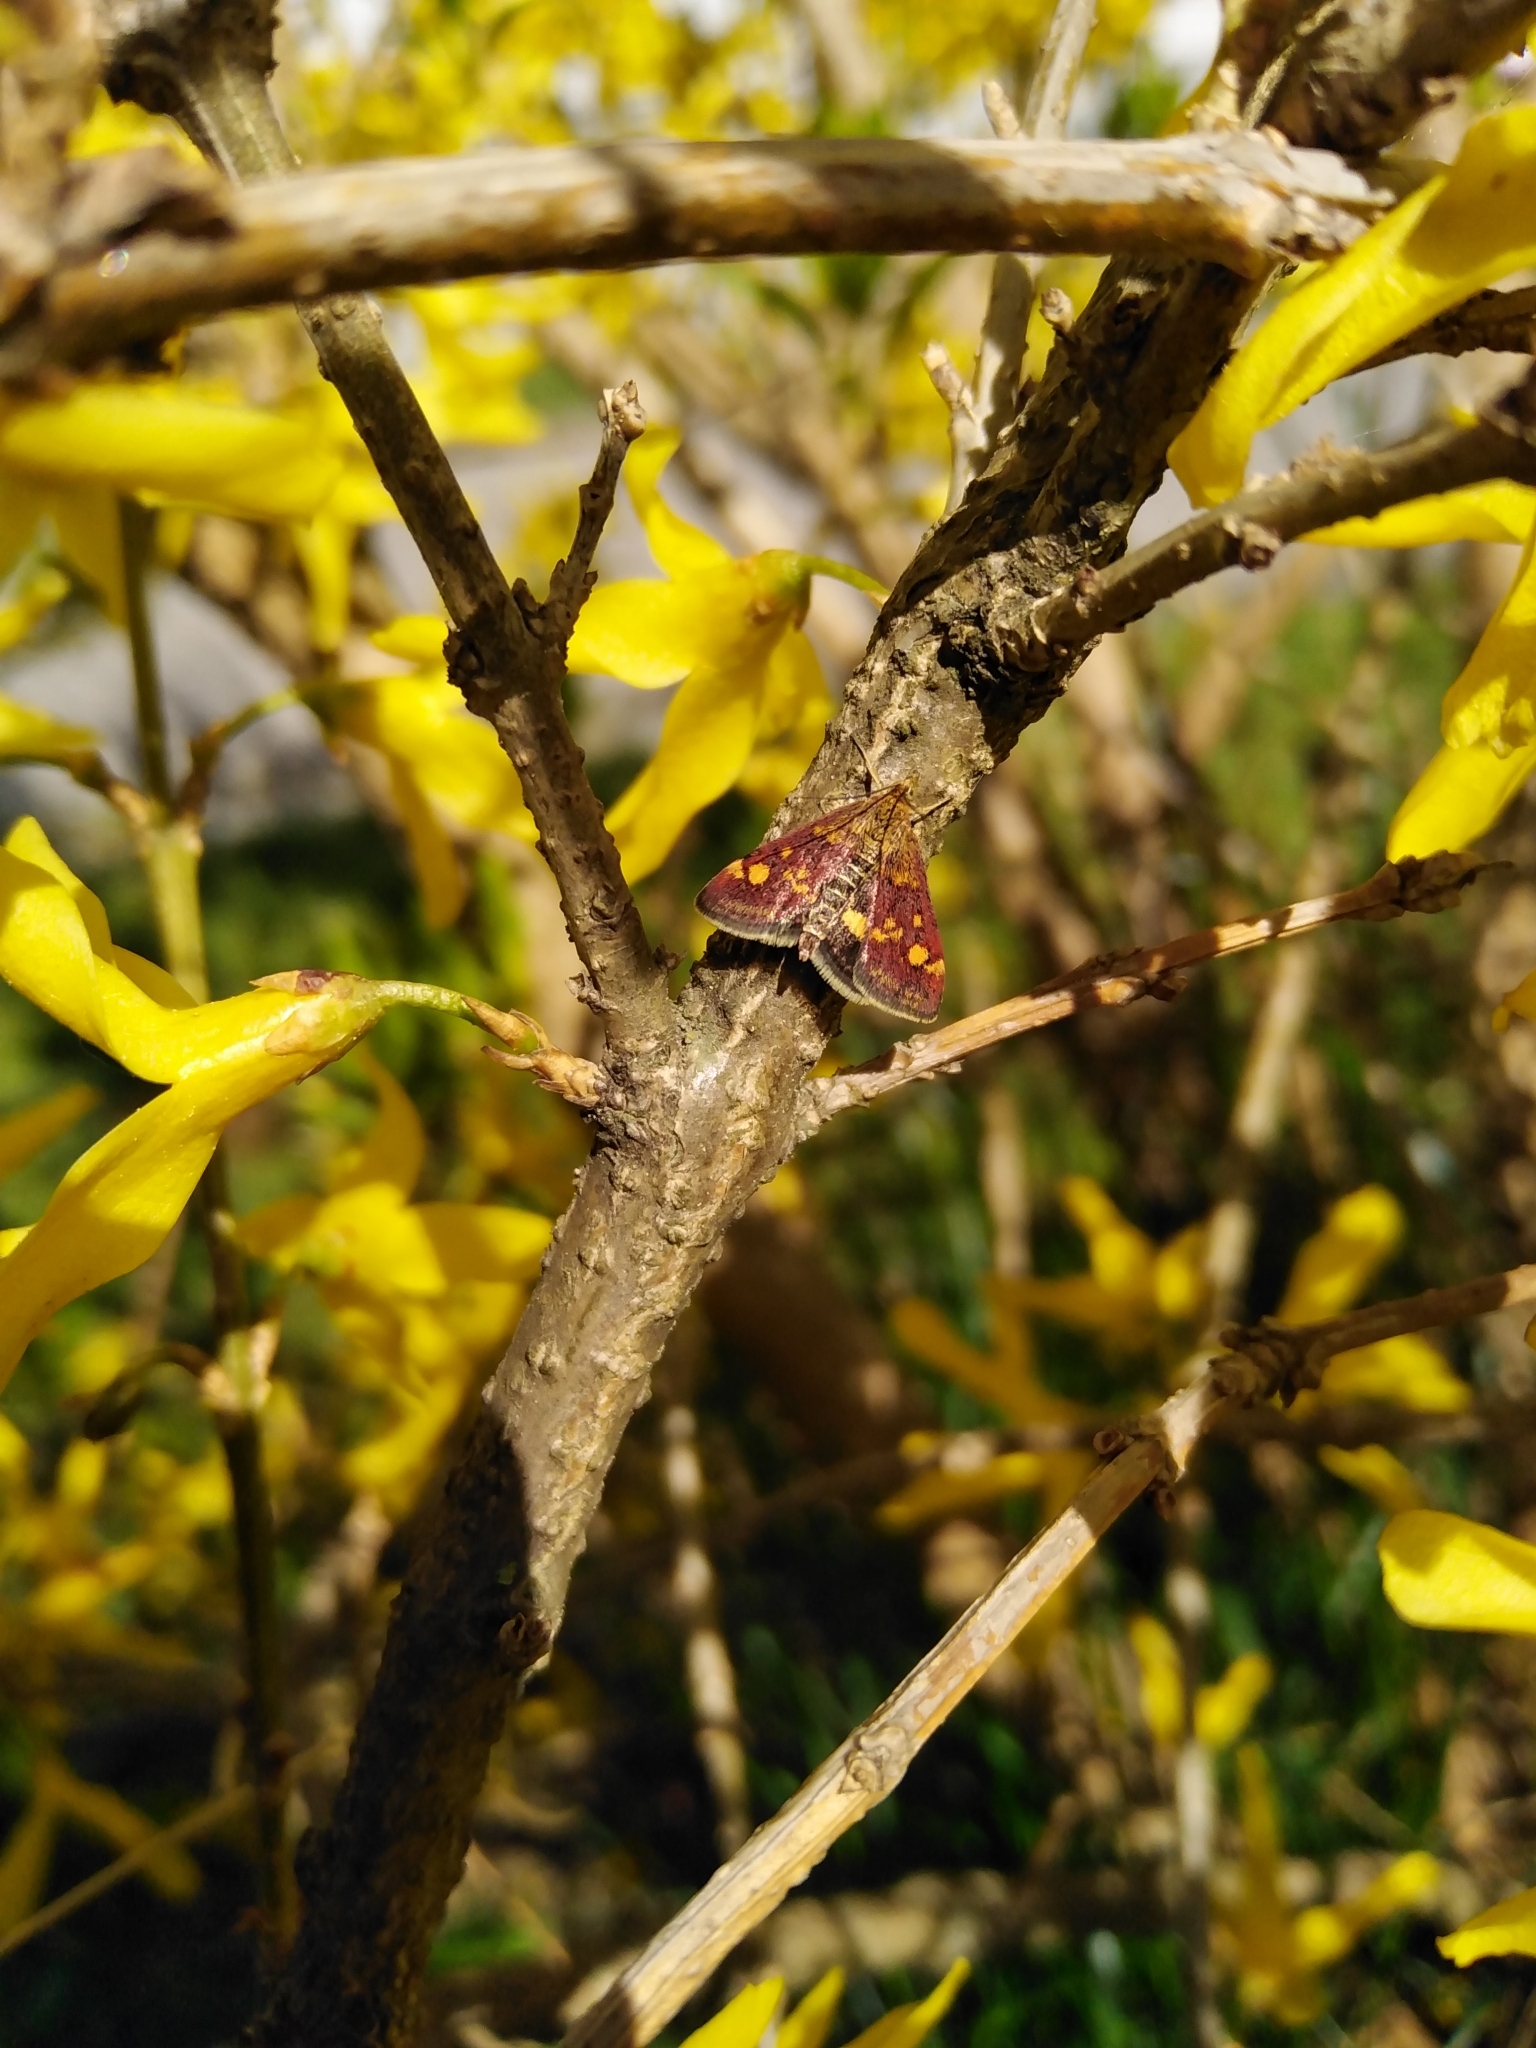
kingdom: Animalia
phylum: Arthropoda
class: Insecta
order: Lepidoptera
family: Crambidae
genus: Pyrausta
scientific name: Pyrausta aurata
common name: Small purple & gold
